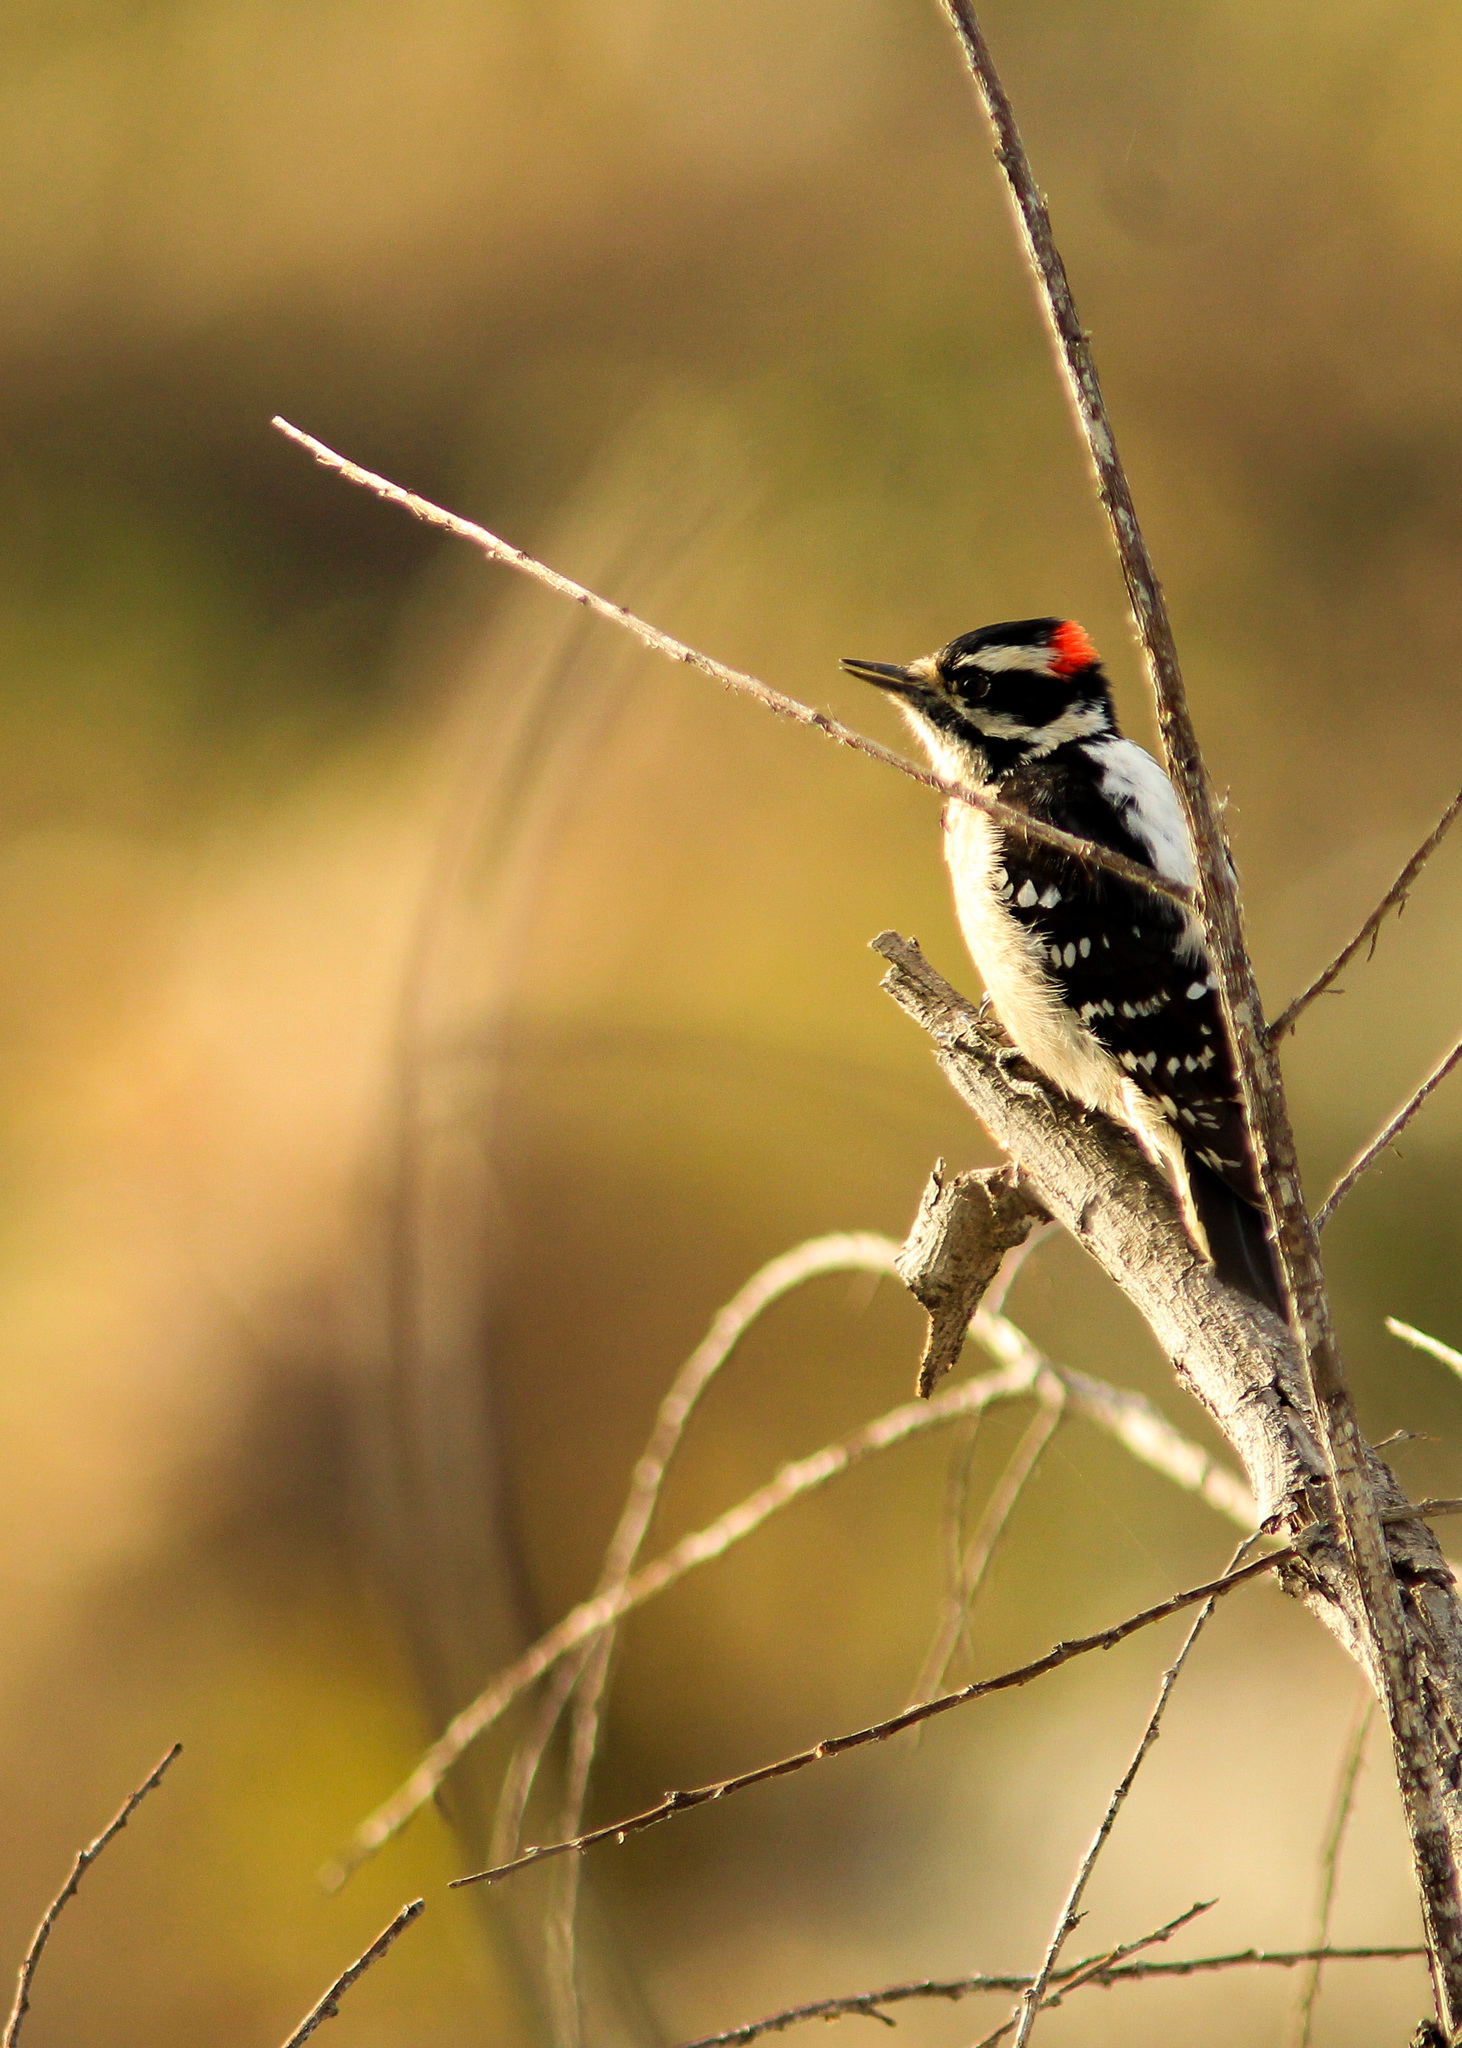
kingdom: Animalia
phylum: Chordata
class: Aves
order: Piciformes
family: Picidae
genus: Dryobates
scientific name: Dryobates pubescens
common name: Downy woodpecker
